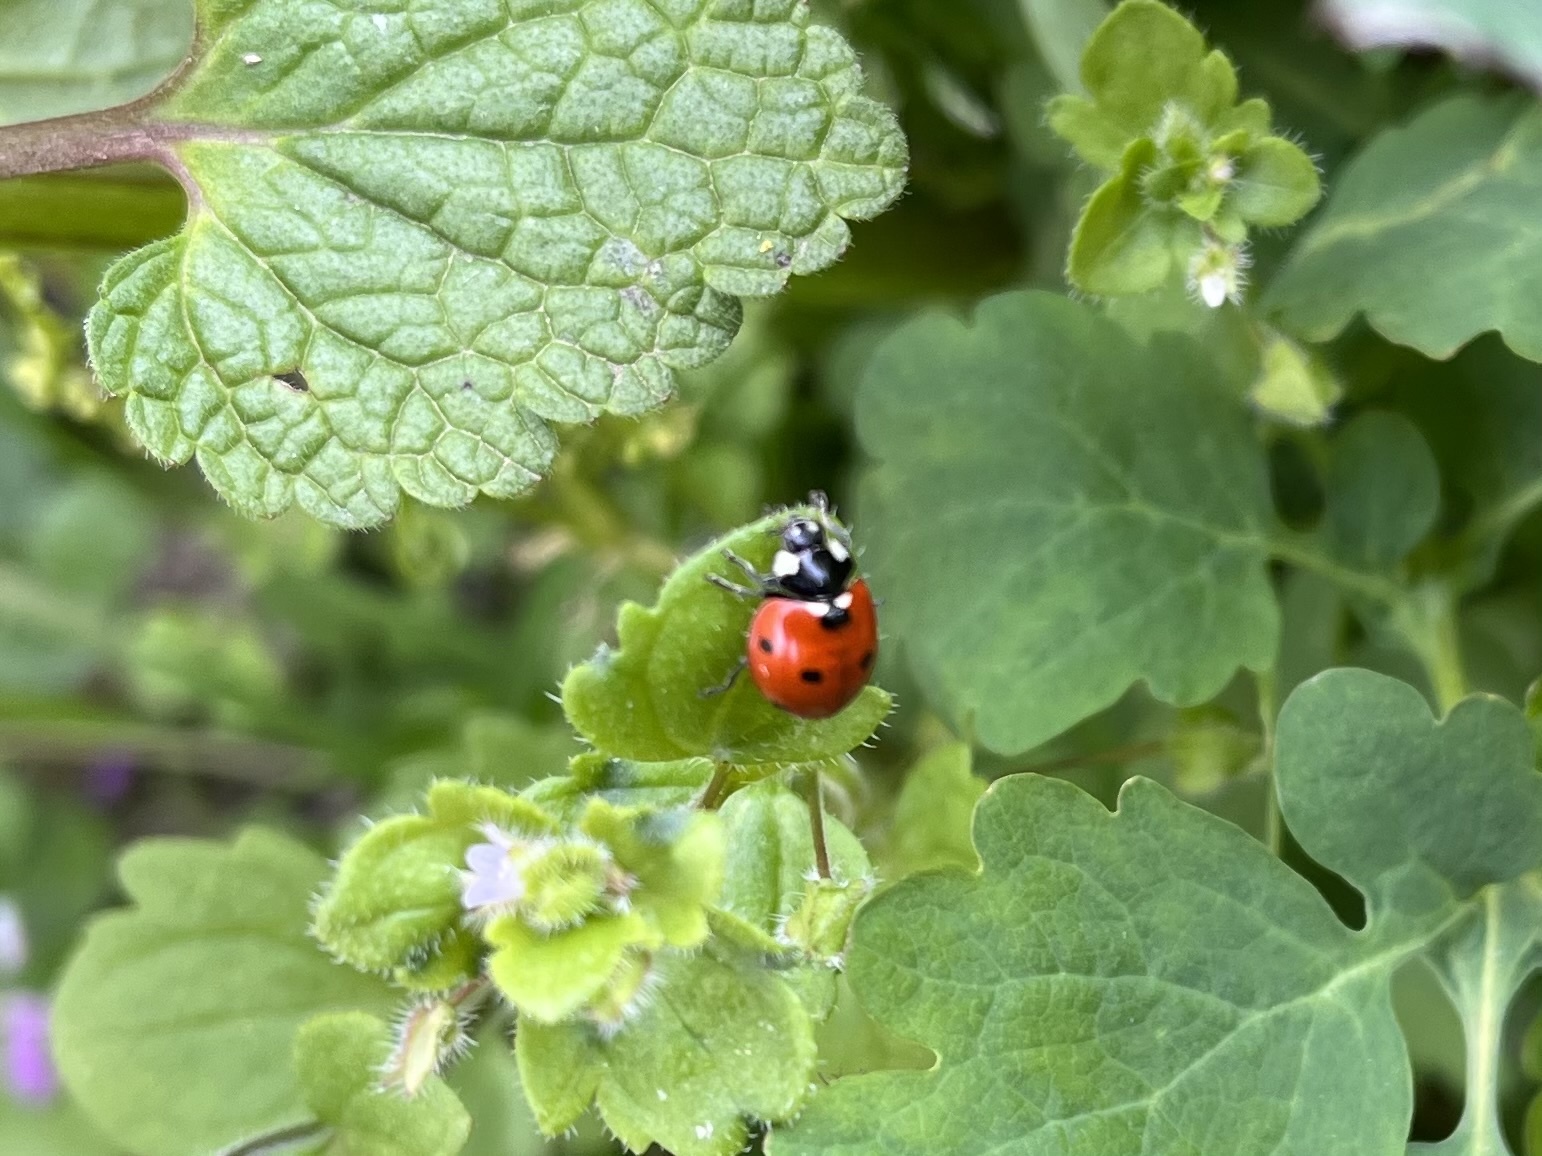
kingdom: Animalia
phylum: Arthropoda
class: Insecta
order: Coleoptera
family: Coccinellidae
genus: Coccinella
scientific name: Coccinella septempunctata
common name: Sevenspotted lady beetle
